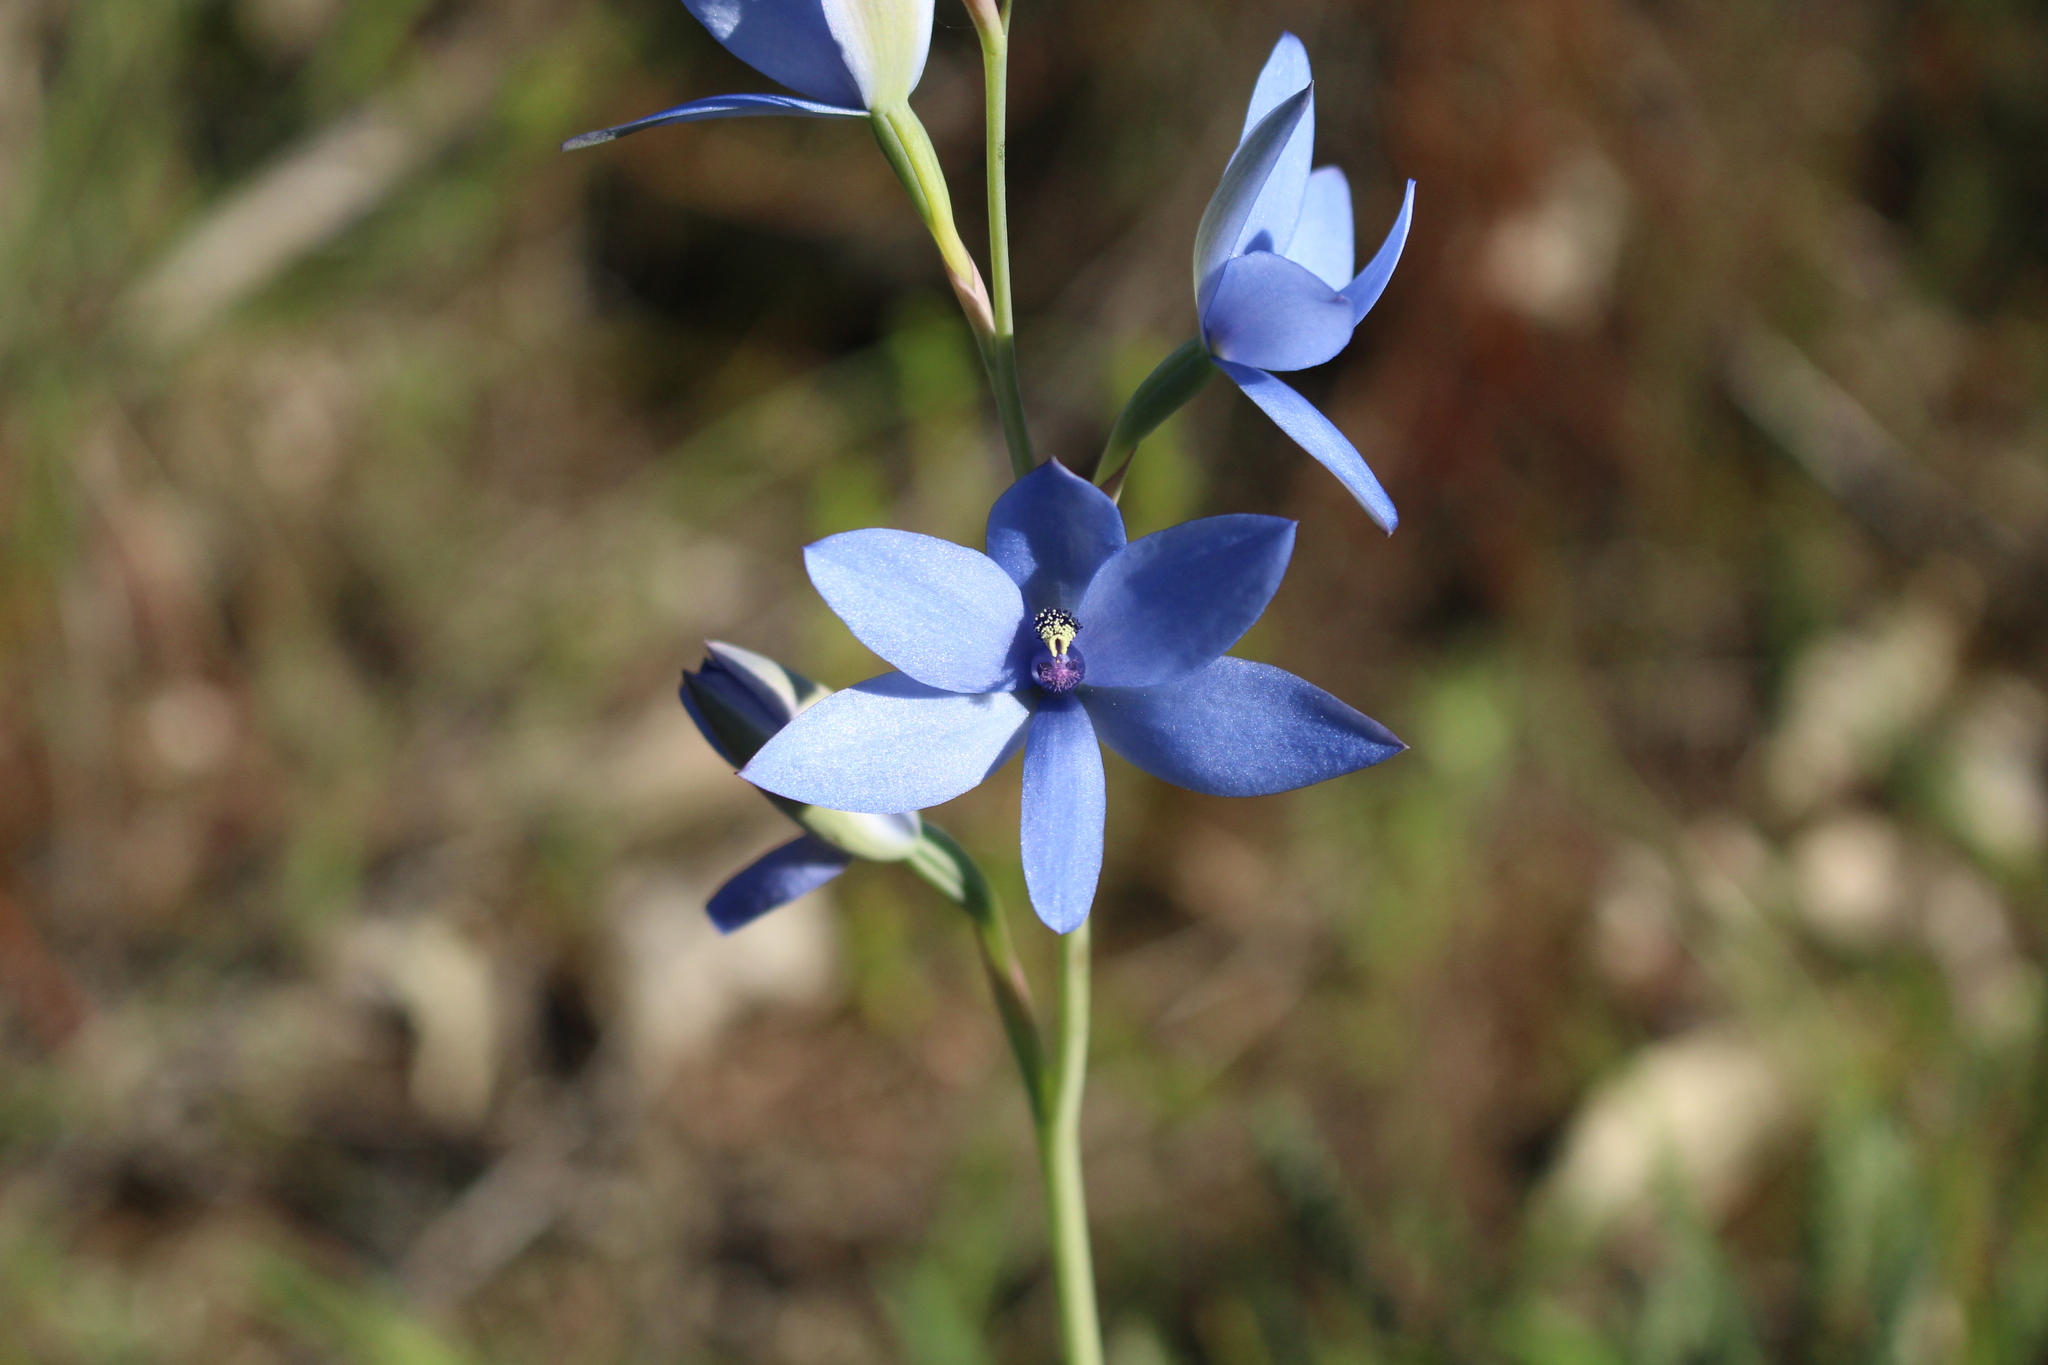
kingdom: Plantae
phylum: Tracheophyta
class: Liliopsida
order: Asparagales
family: Orchidaceae
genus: Thelymitra
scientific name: Thelymitra crinita
